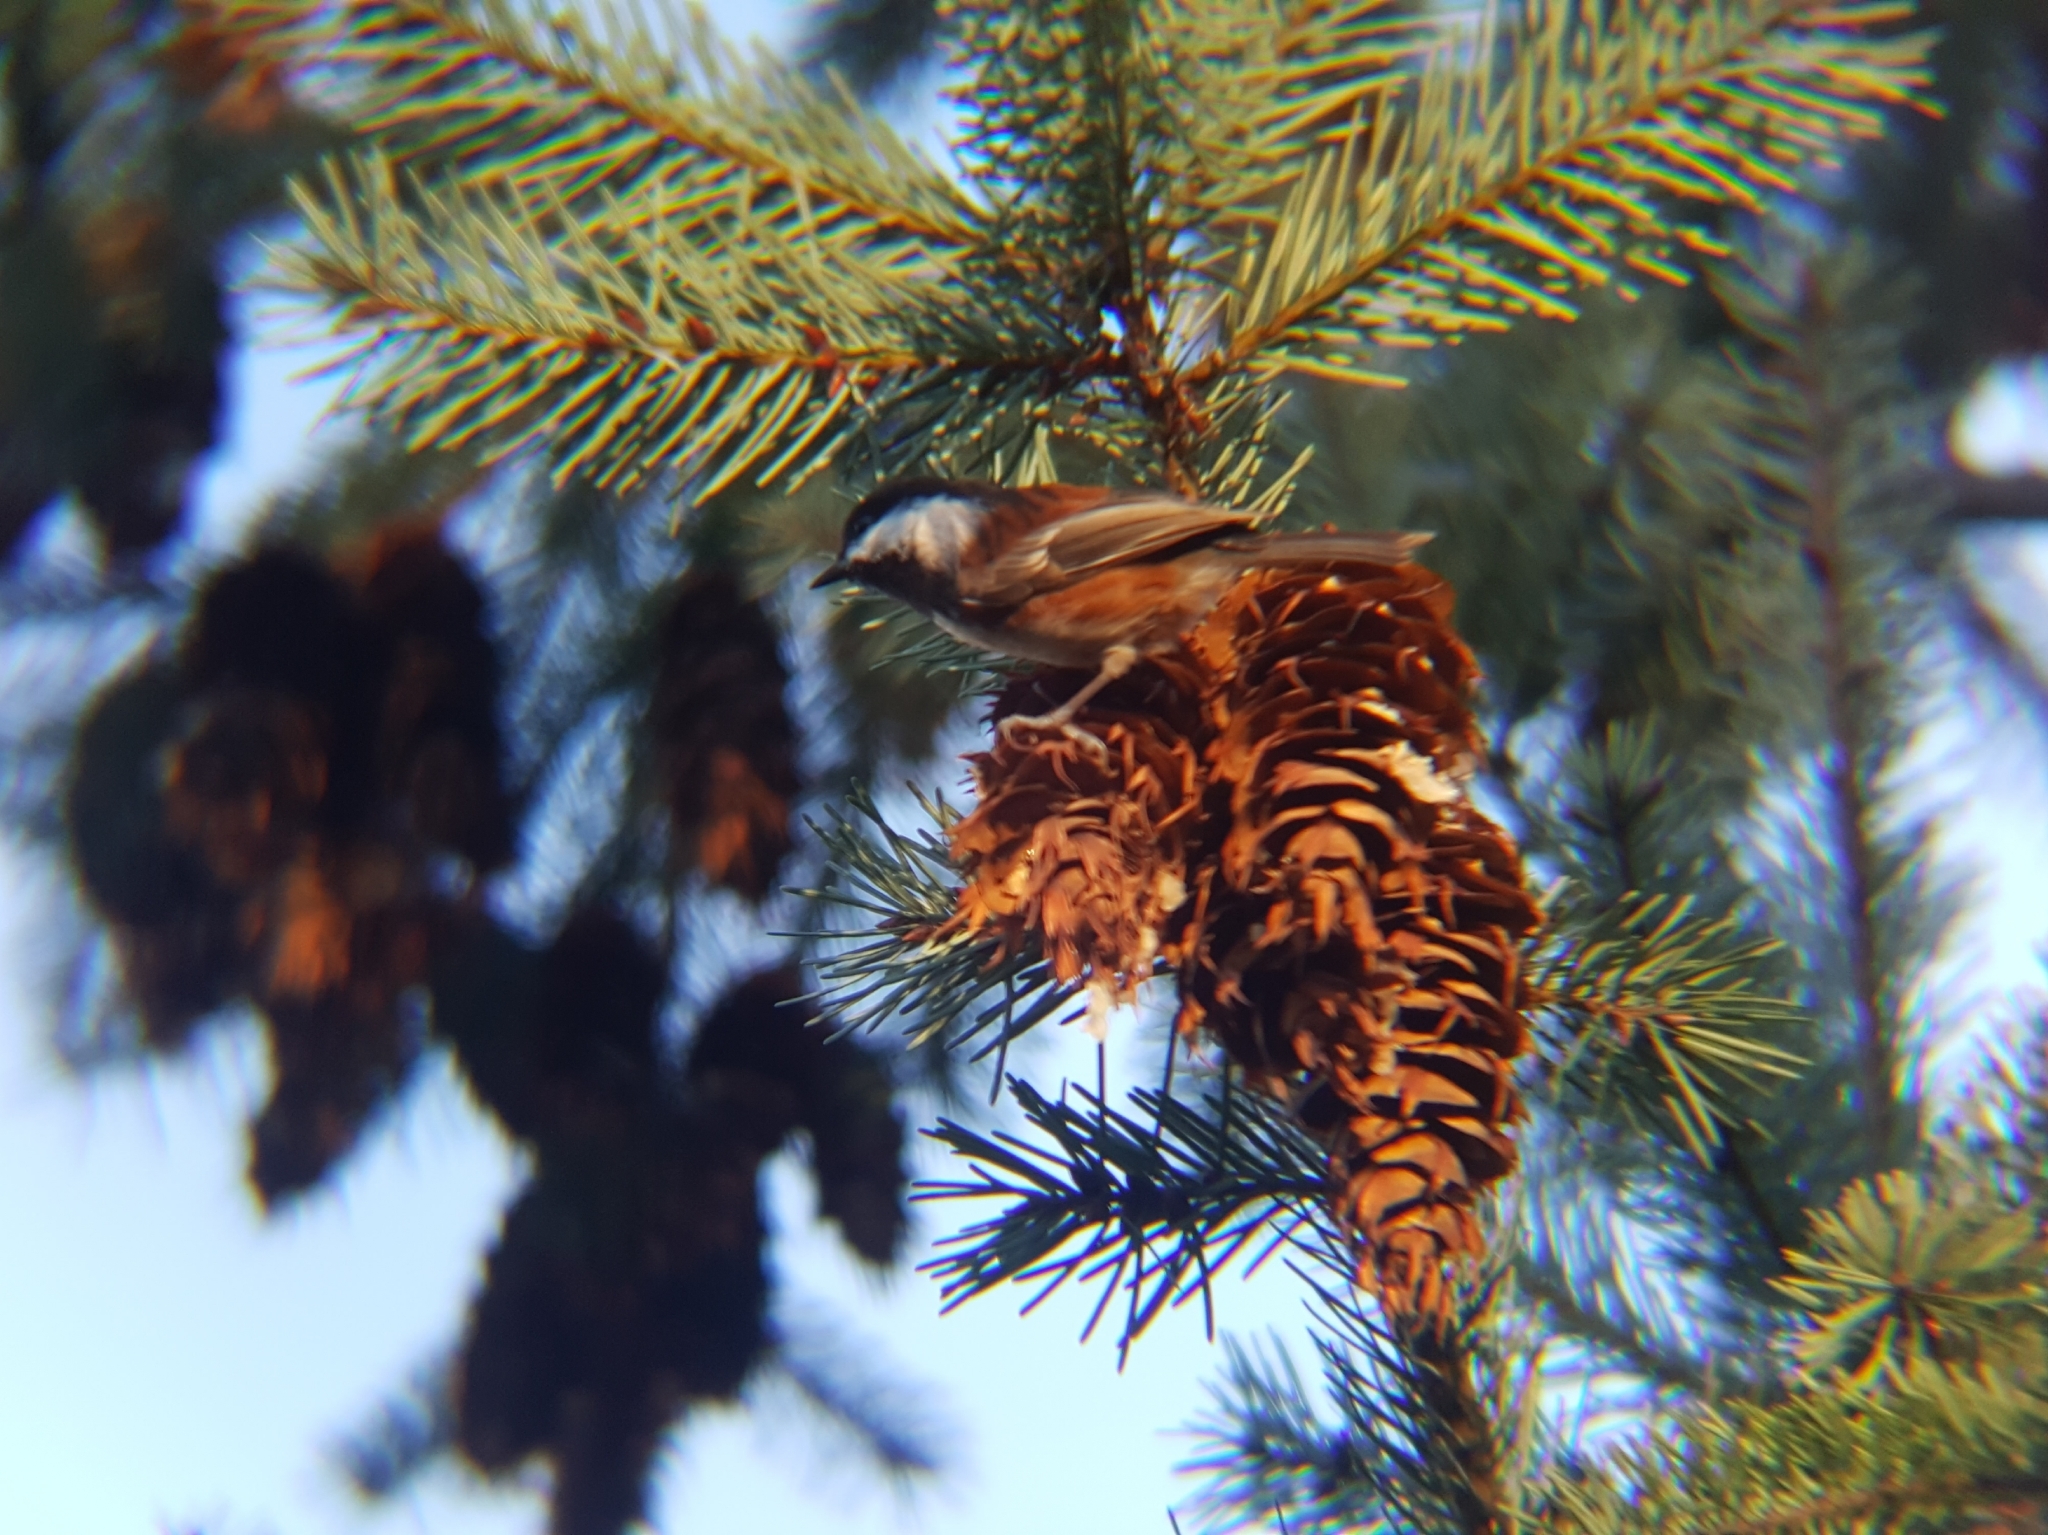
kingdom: Animalia
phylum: Chordata
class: Aves
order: Passeriformes
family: Paridae
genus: Poecile
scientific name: Poecile rufescens
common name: Chestnut-backed chickadee
